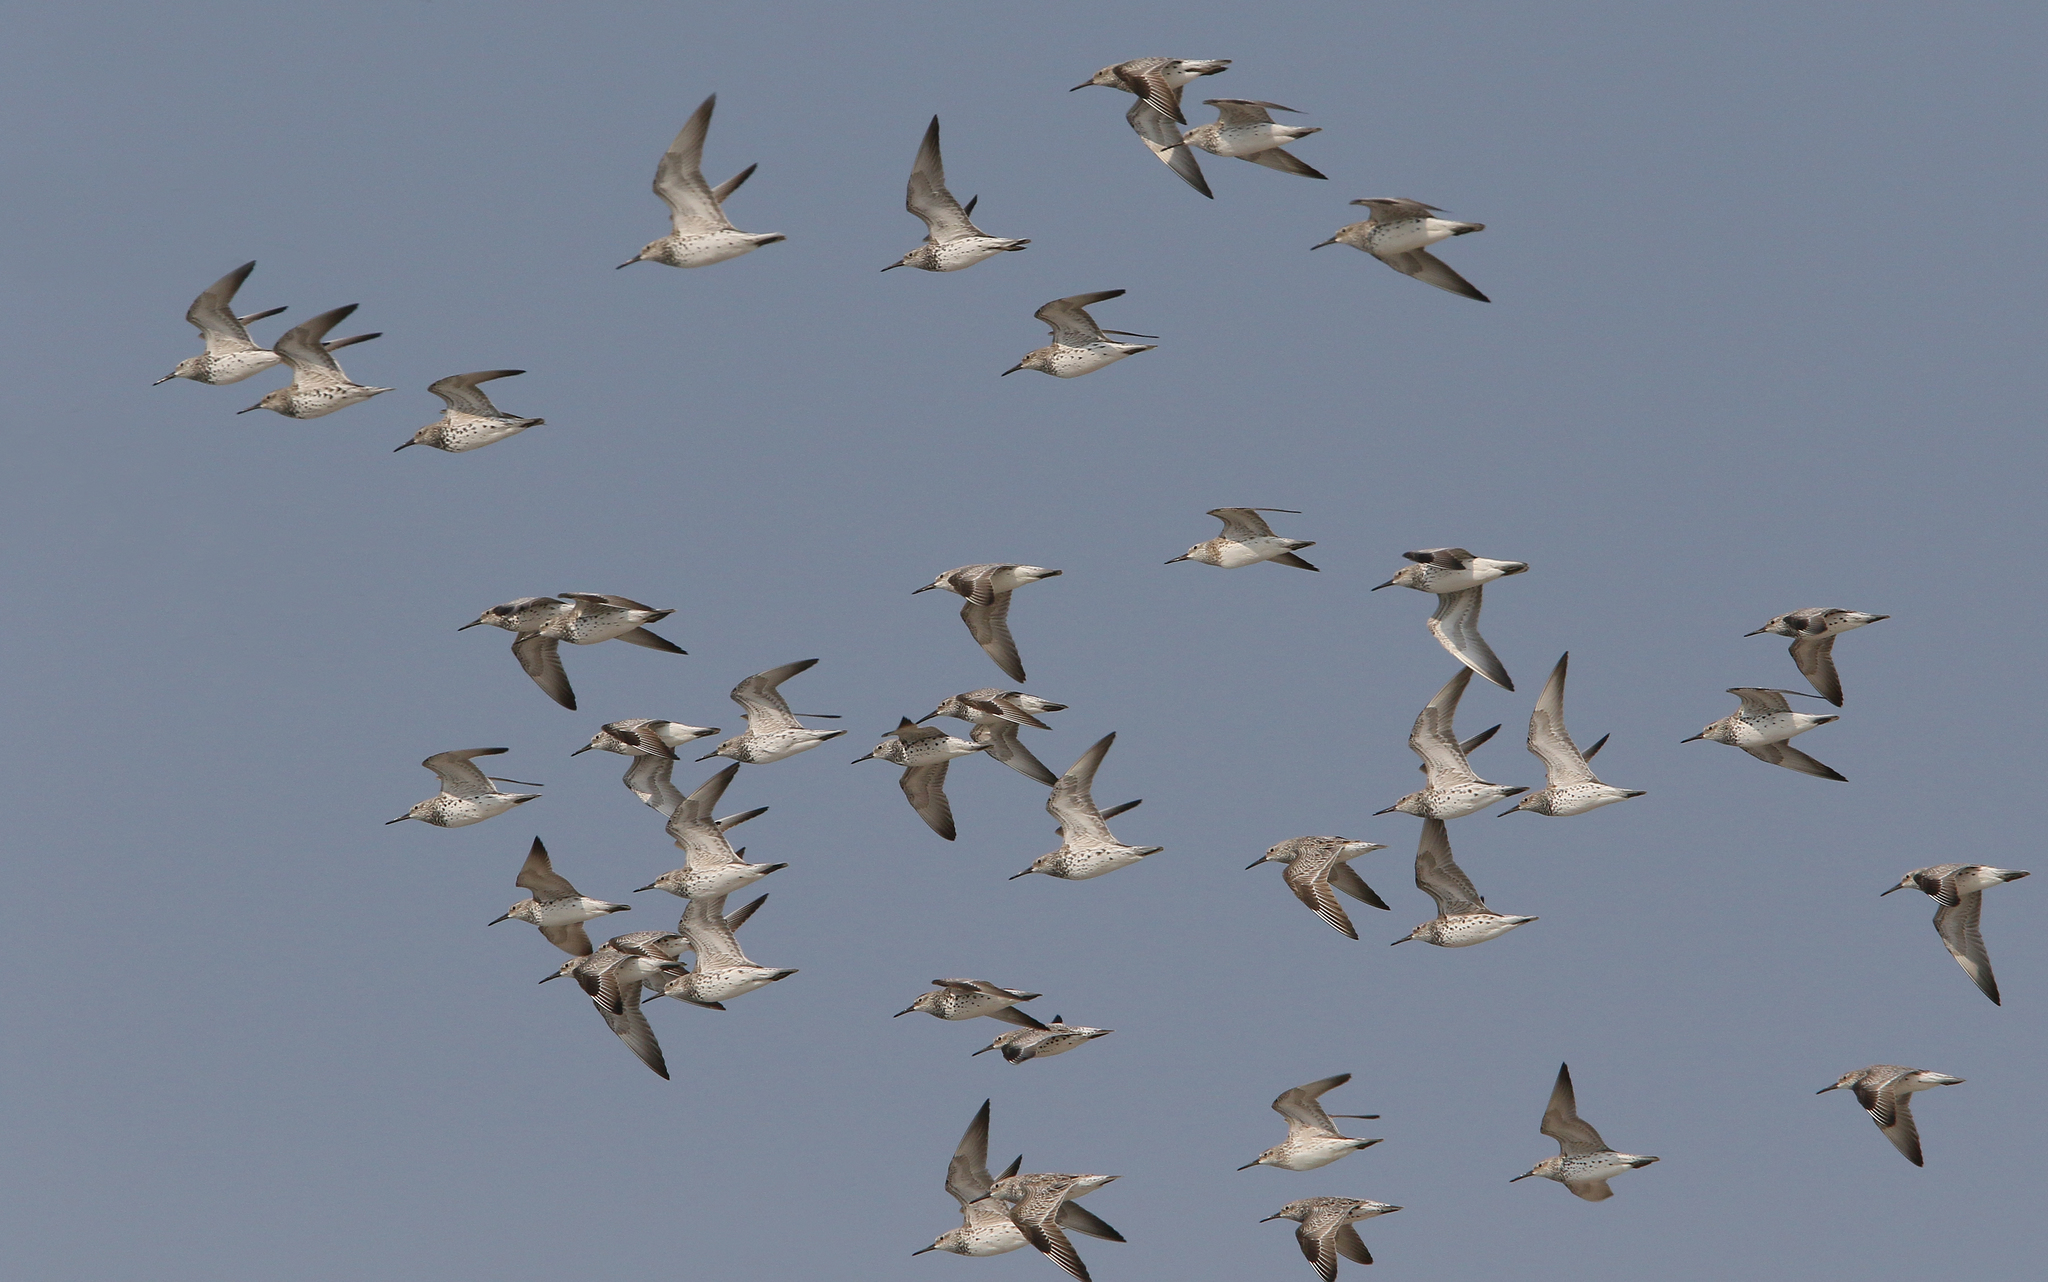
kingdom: Animalia
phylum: Chordata
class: Aves
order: Charadriiformes
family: Scolopacidae
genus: Calidris
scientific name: Calidris tenuirostris
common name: Great knot
